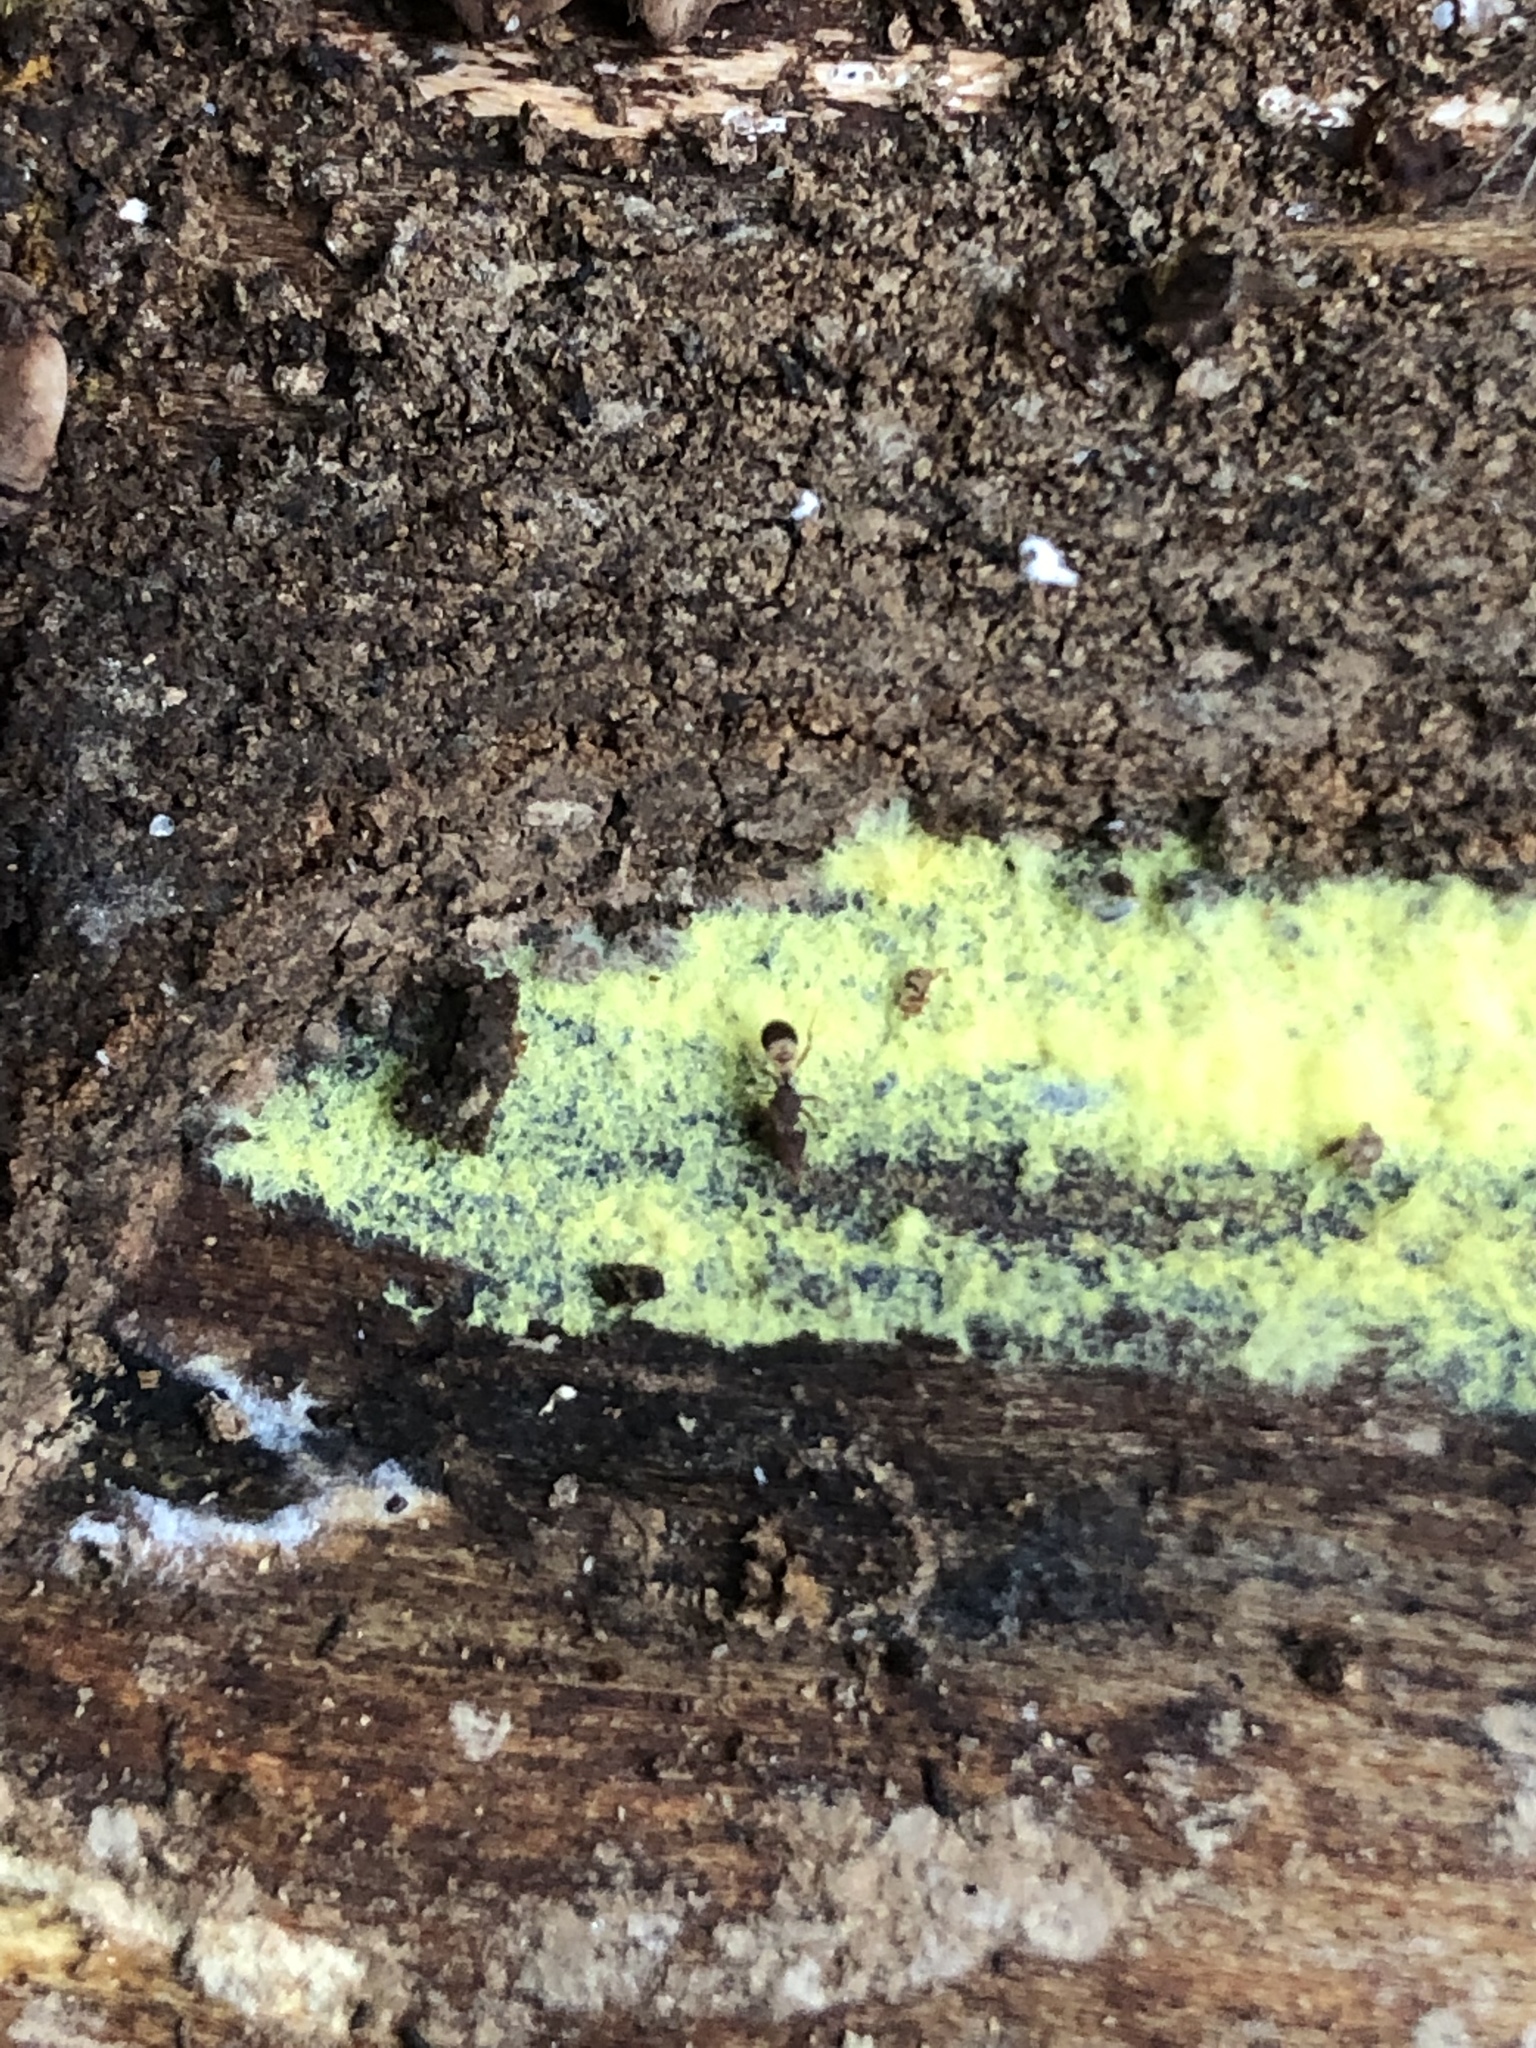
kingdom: Animalia
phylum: Arthropoda
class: Insecta
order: Hymenoptera
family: Formicidae
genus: Pyramica
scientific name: Pyramica dietrichi
